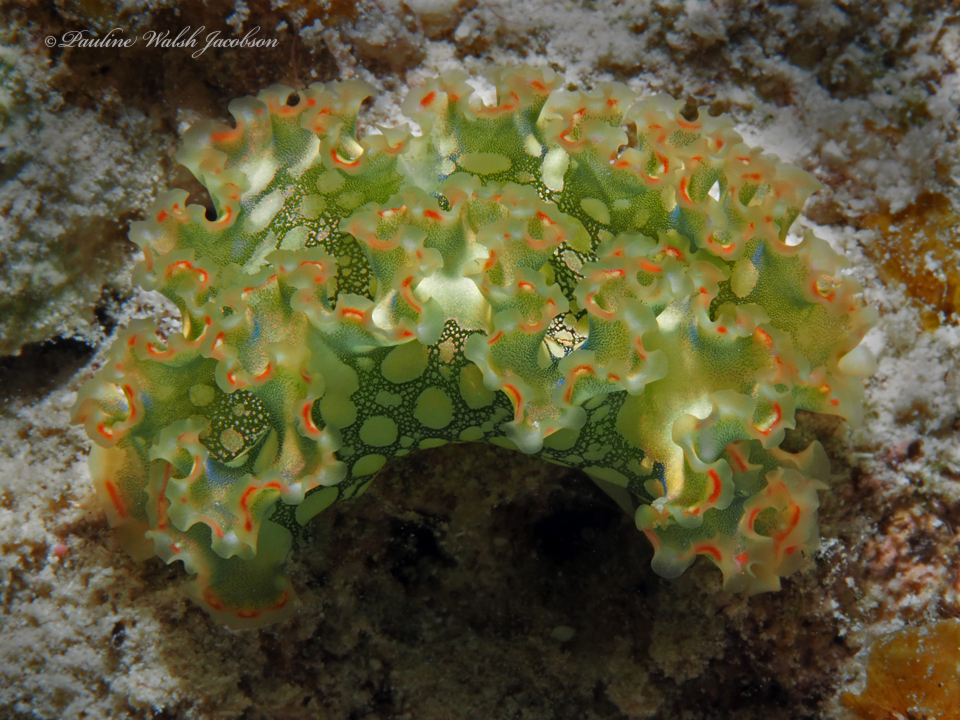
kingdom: Animalia
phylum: Mollusca
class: Gastropoda
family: Plakobranchidae
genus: Elysia
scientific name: Elysia crispata
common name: Lettuce slug
